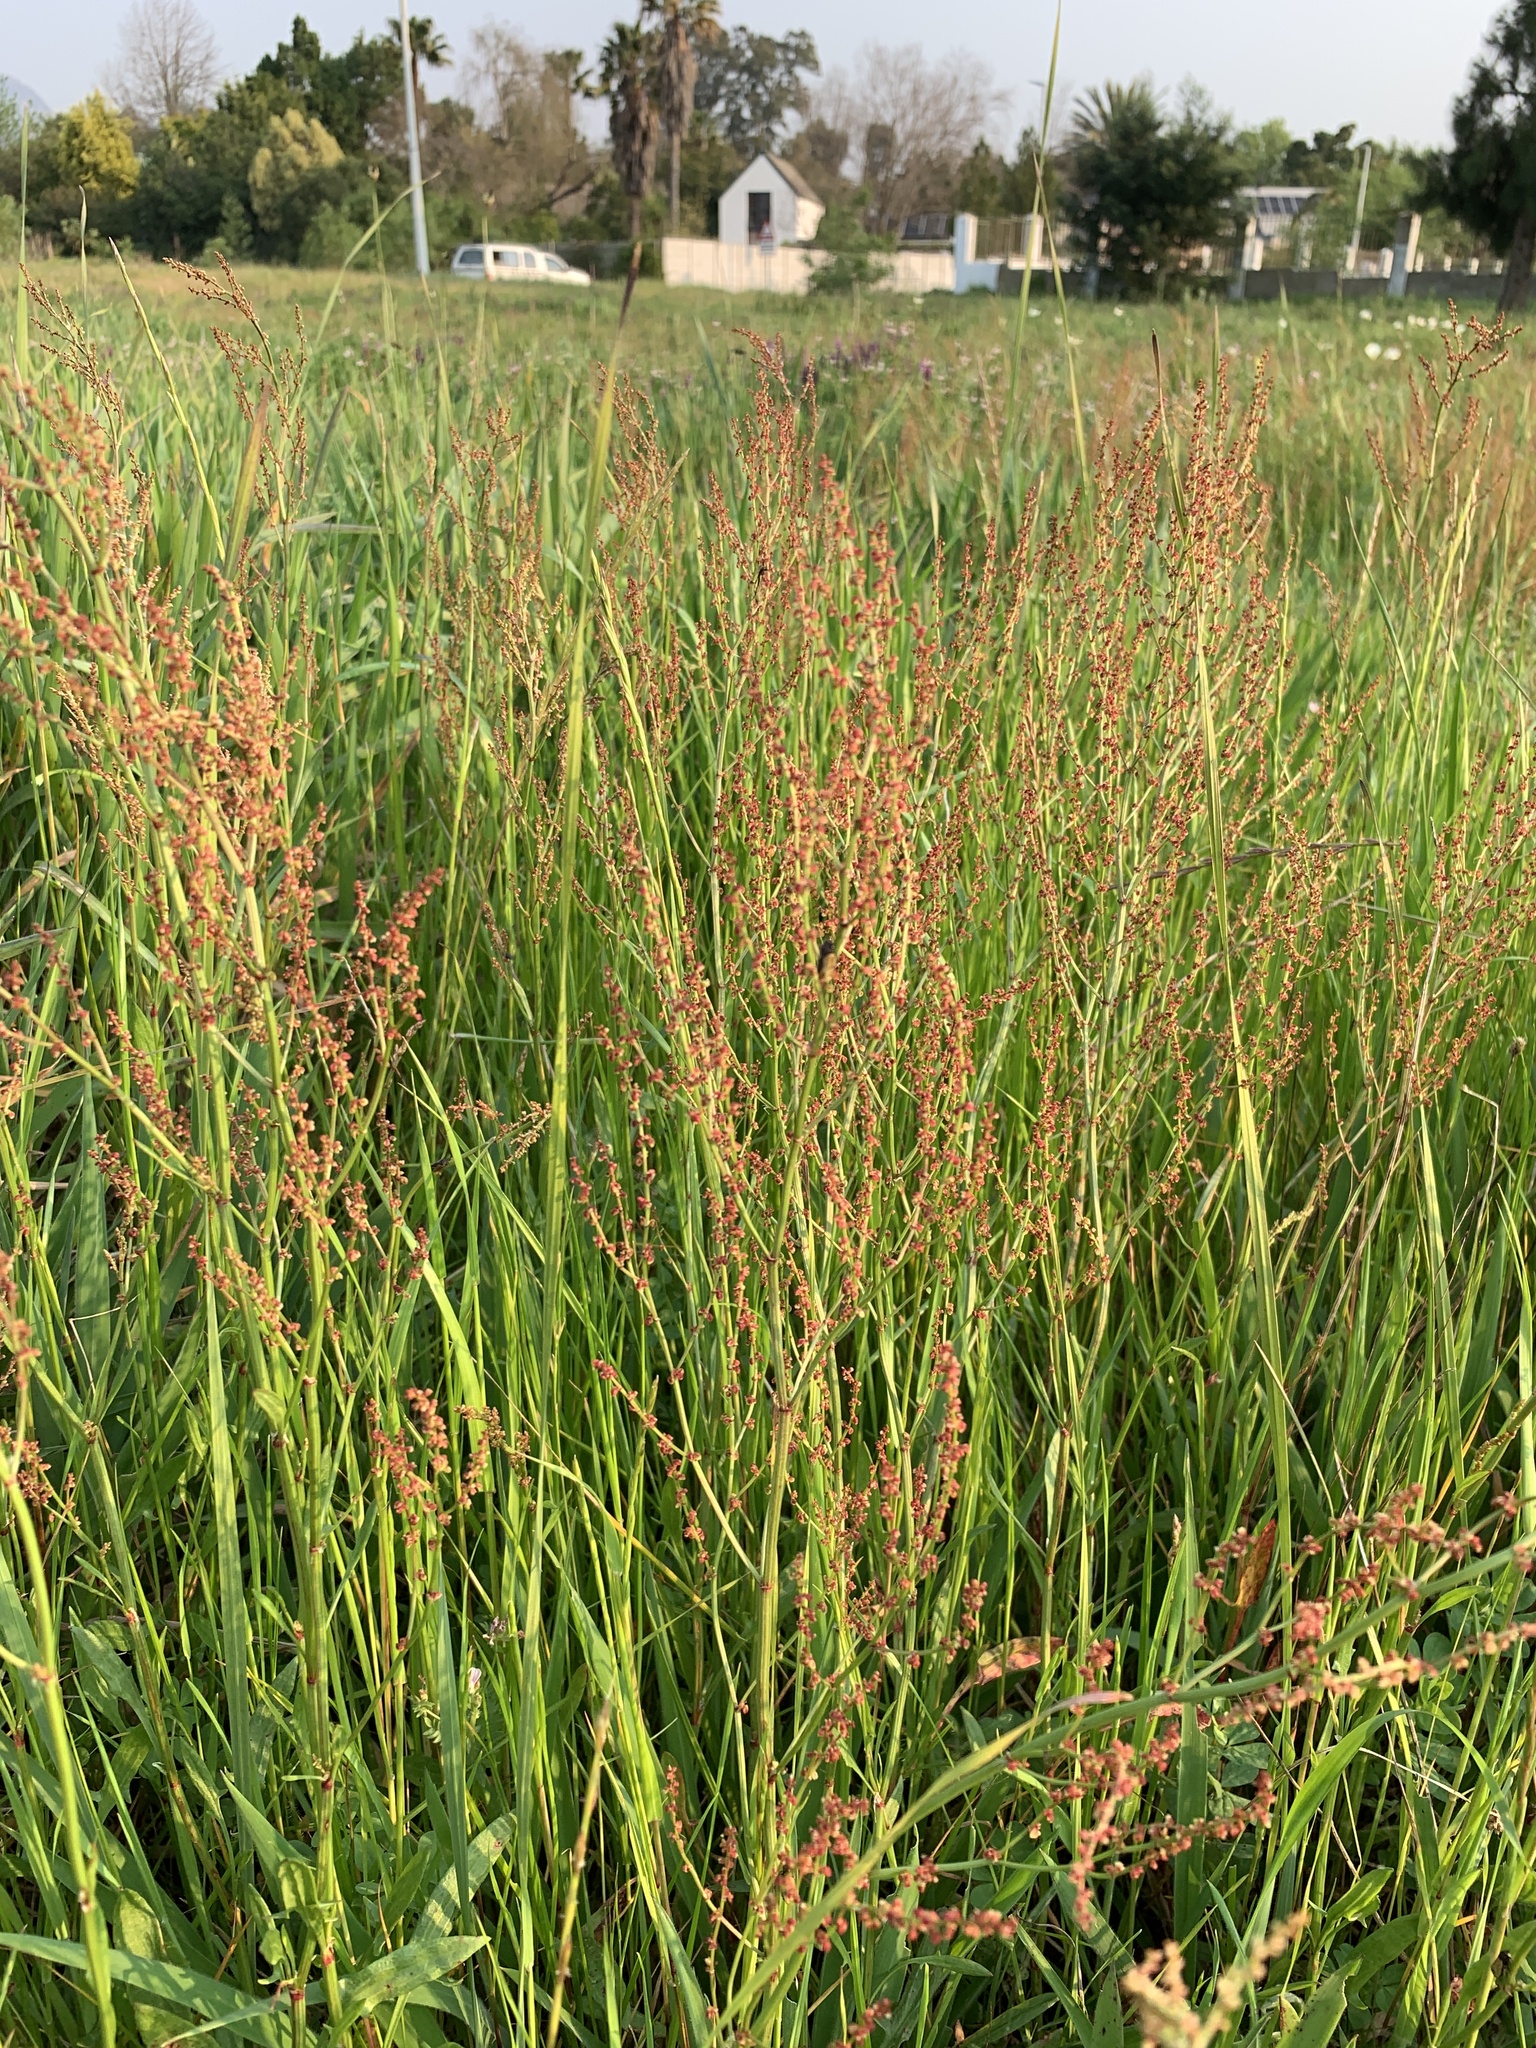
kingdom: Plantae
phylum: Tracheophyta
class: Magnoliopsida
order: Caryophyllales
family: Polygonaceae
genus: Rumex
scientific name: Rumex acetosella
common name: Common sheep sorrel
